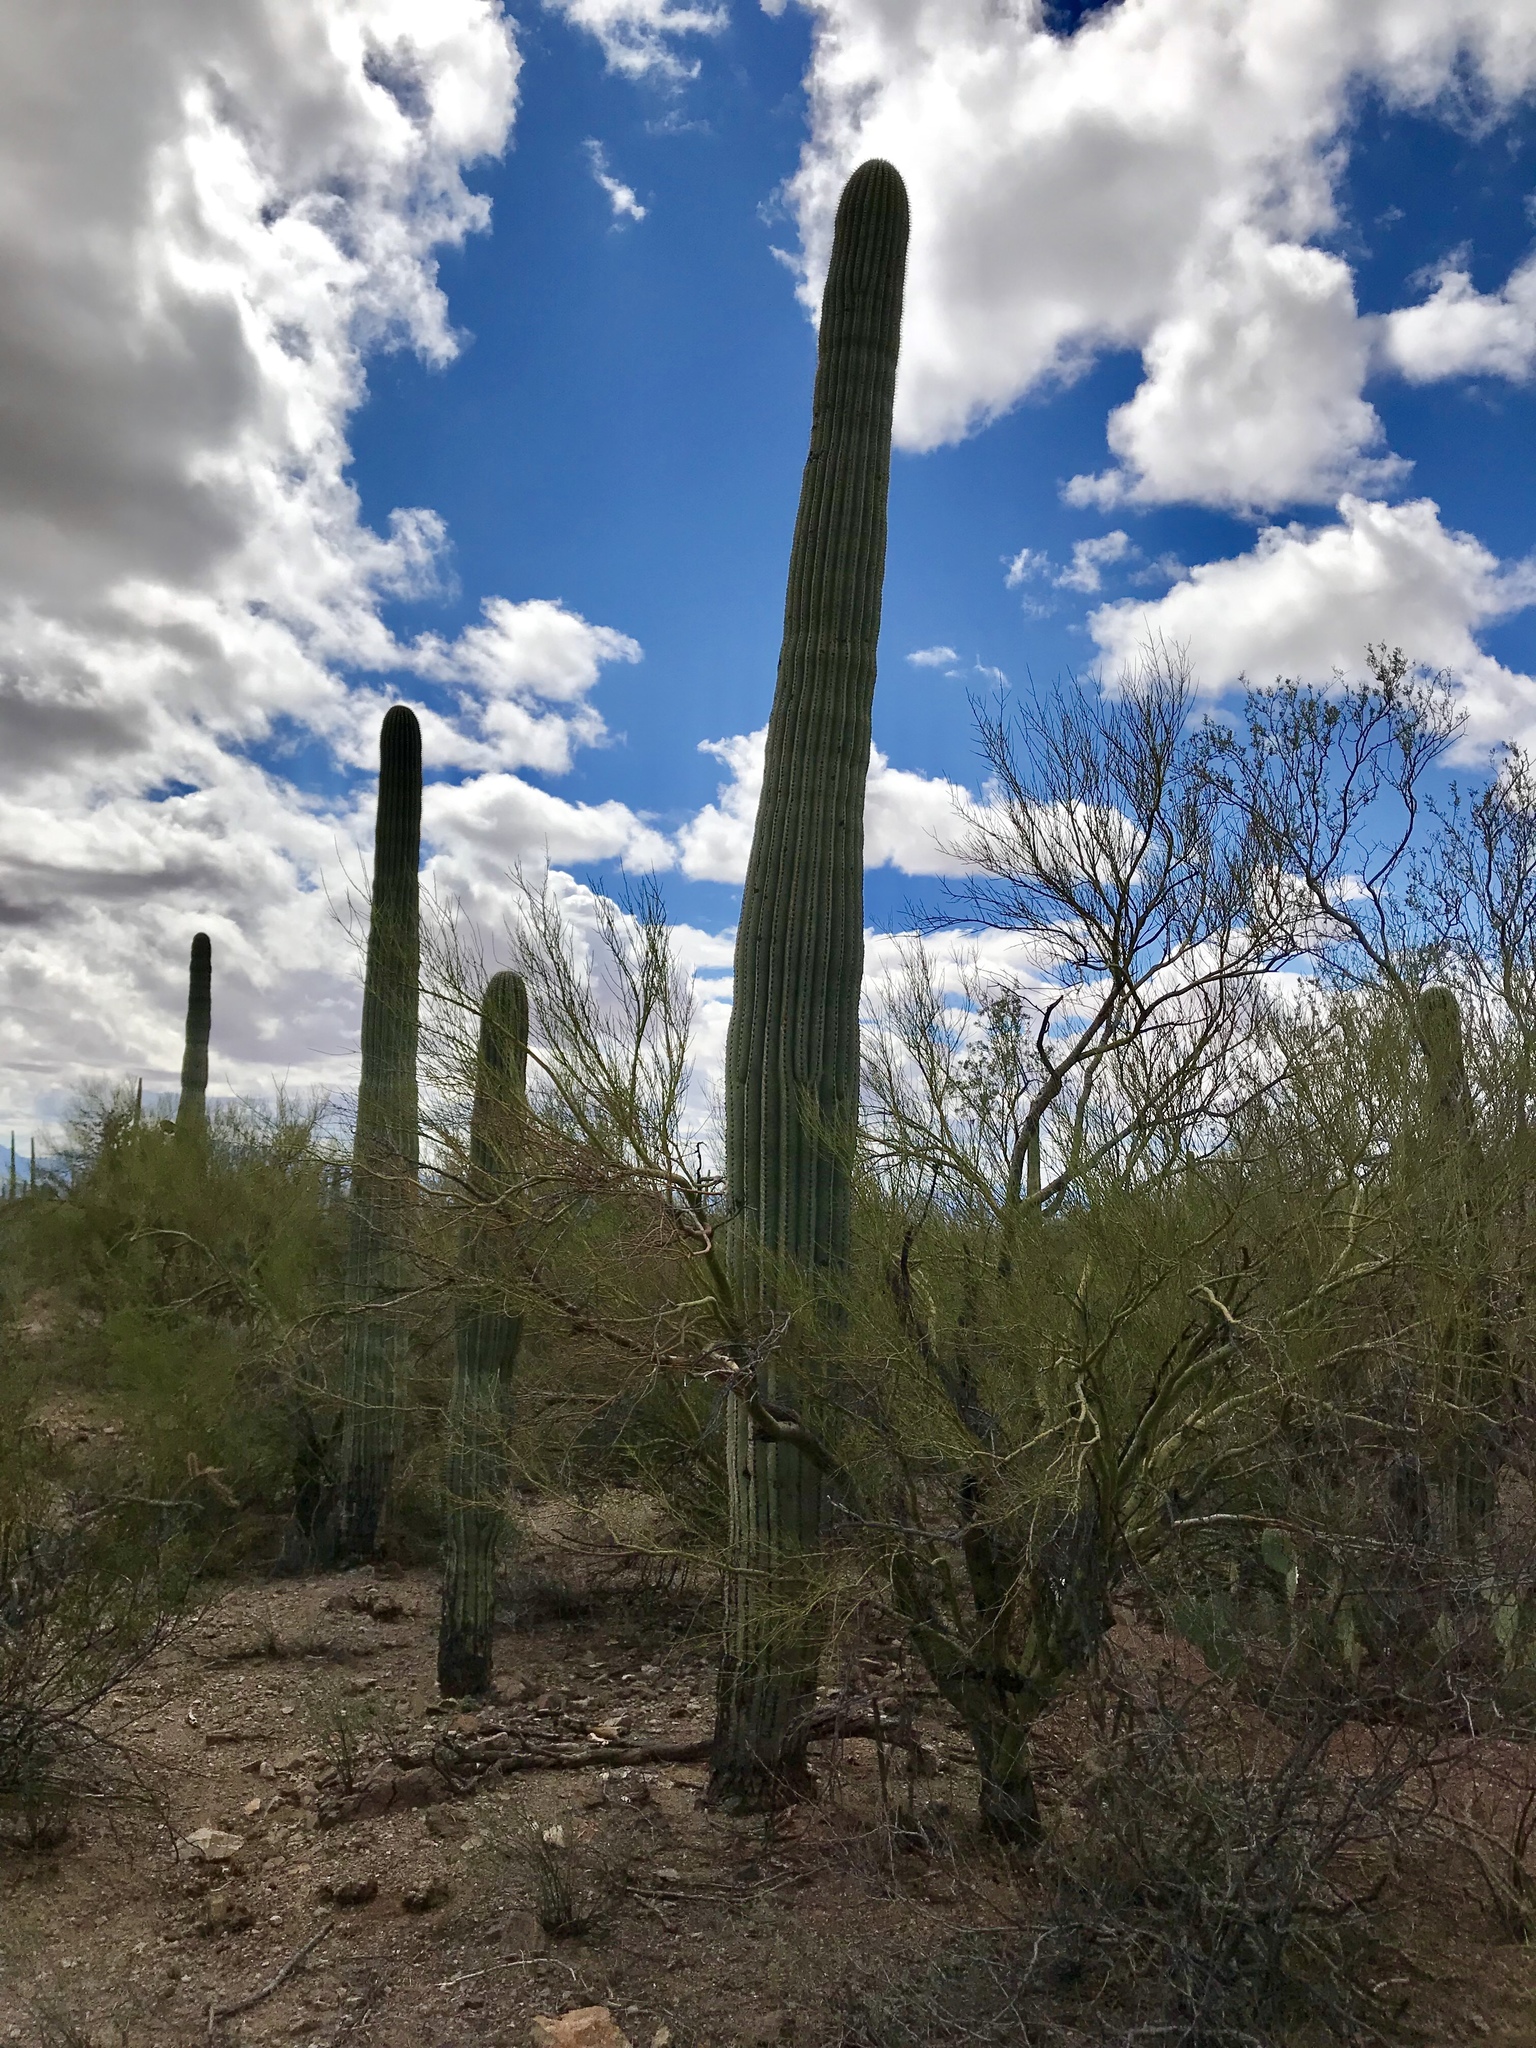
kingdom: Plantae
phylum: Tracheophyta
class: Magnoliopsida
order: Caryophyllales
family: Cactaceae
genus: Carnegiea
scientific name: Carnegiea gigantea
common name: Saguaro
